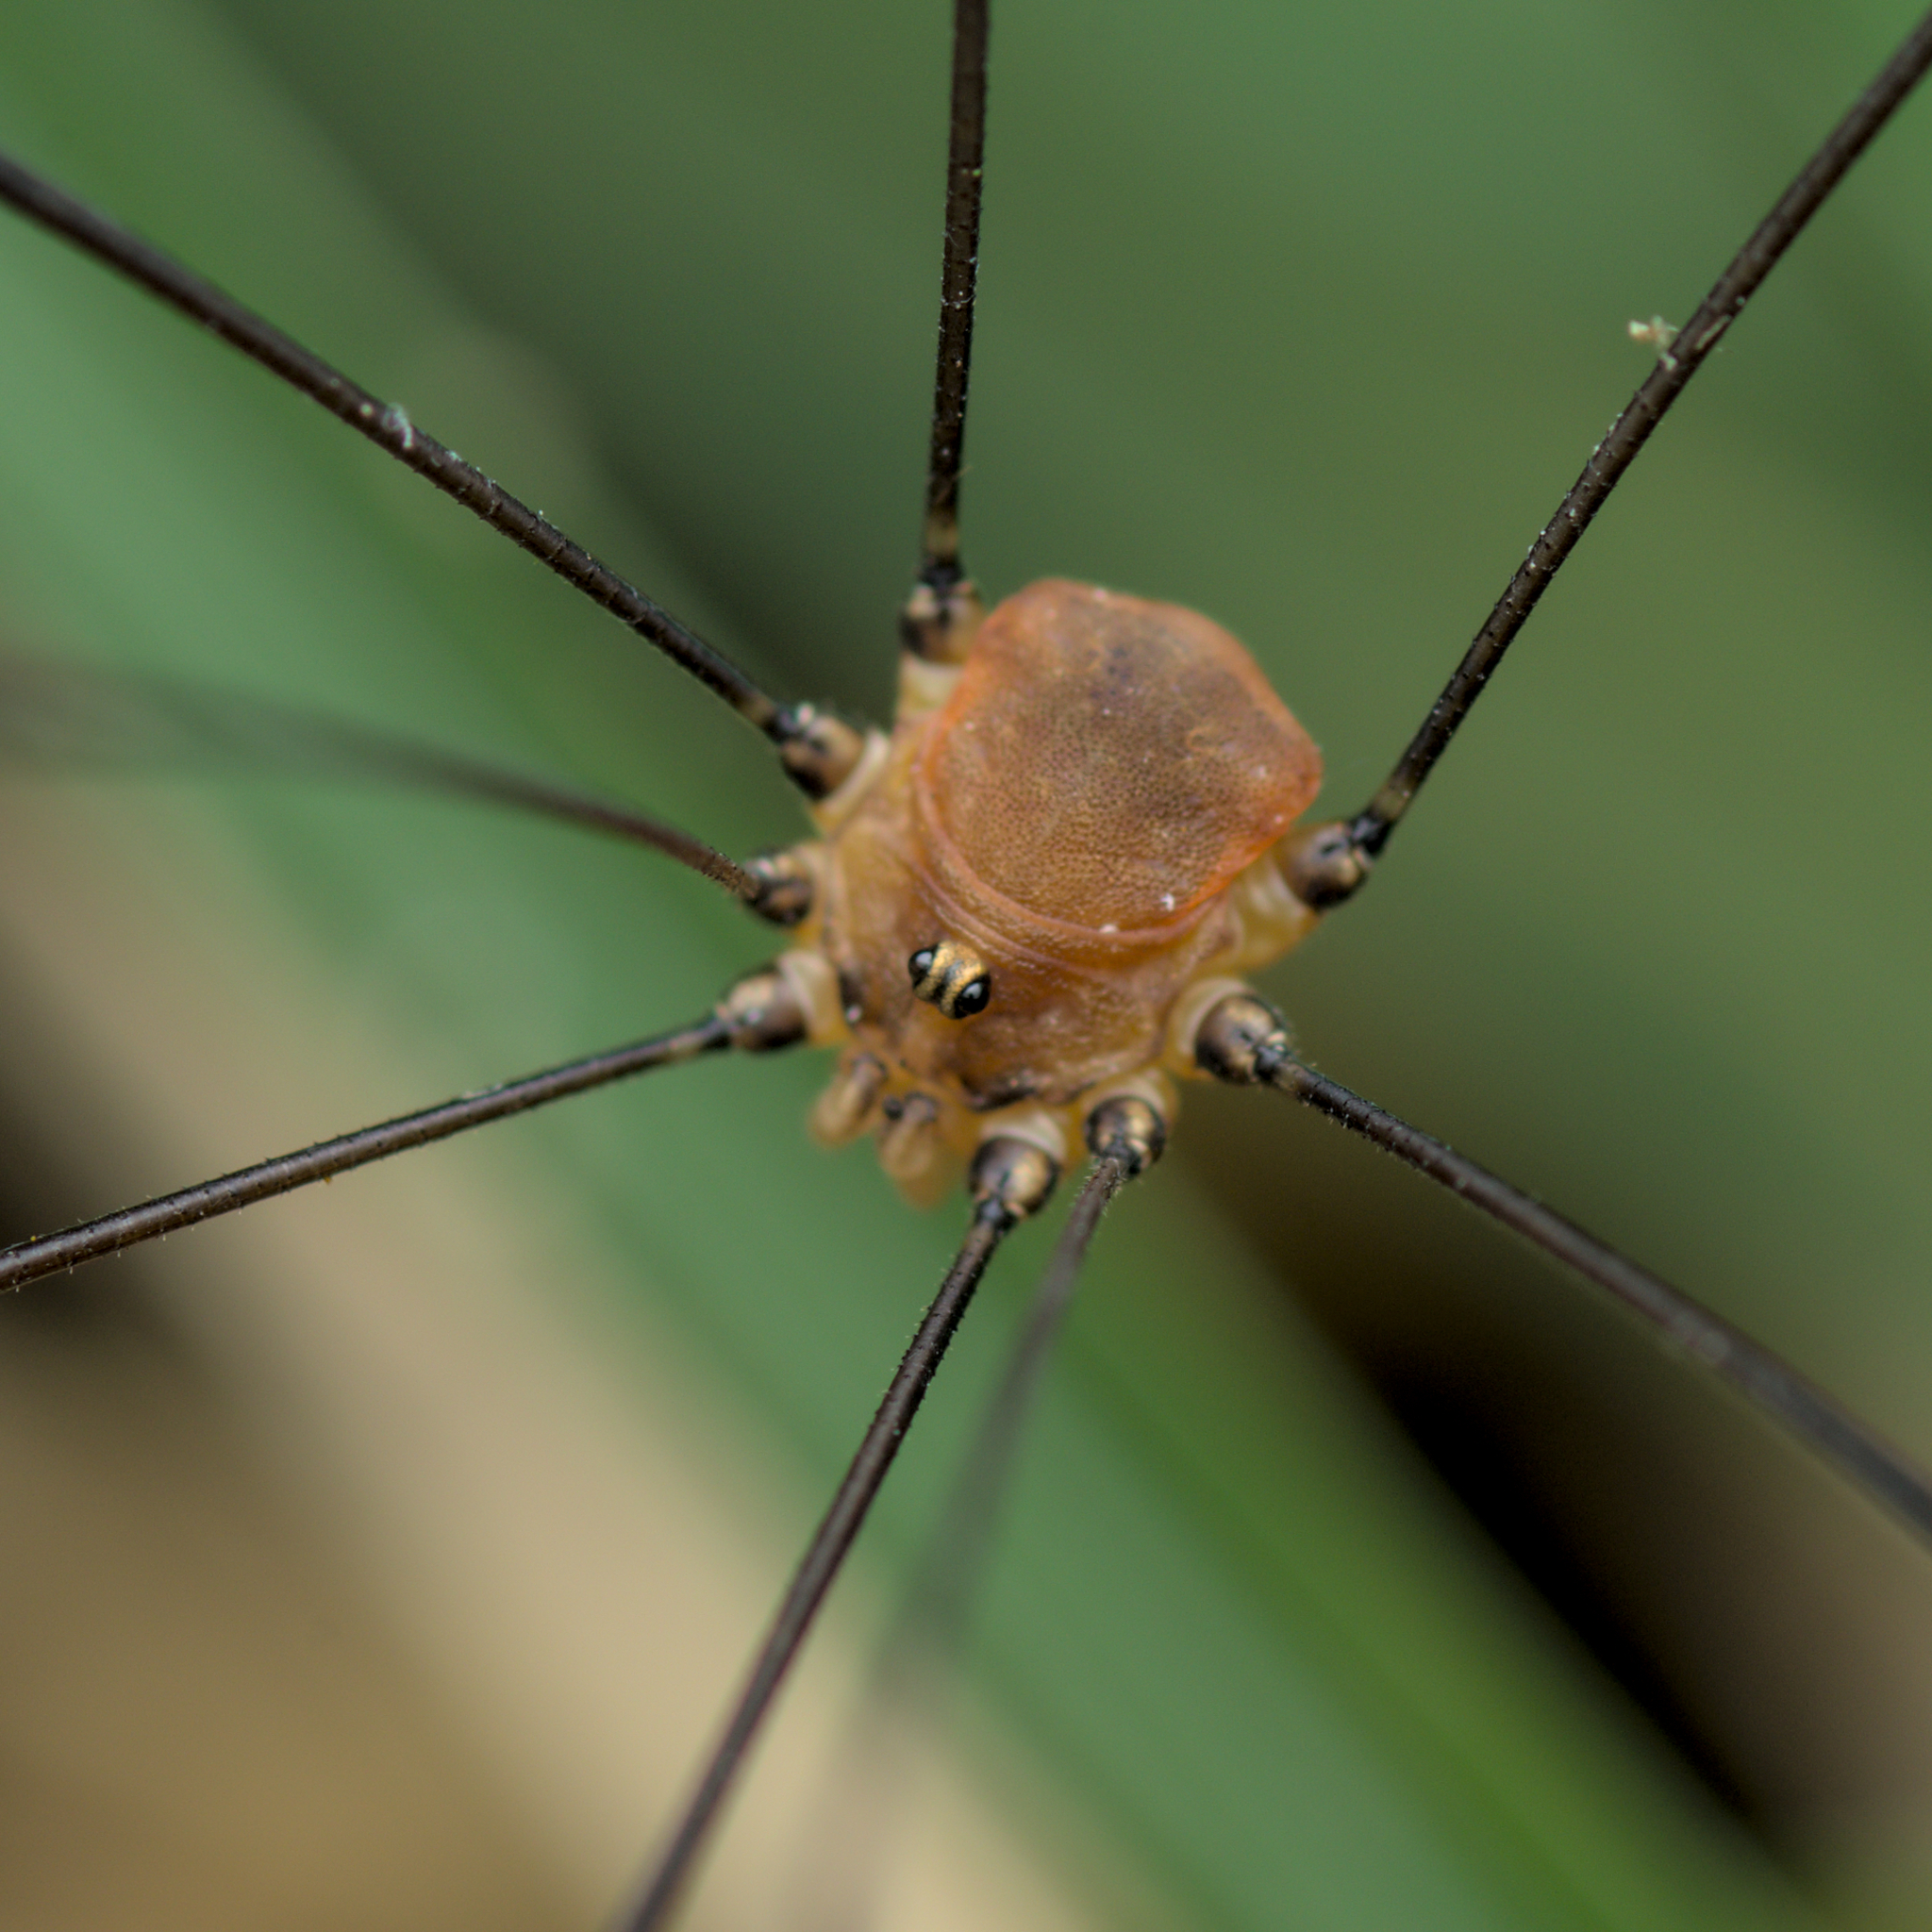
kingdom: Animalia
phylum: Arthropoda
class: Arachnida
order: Opiliones
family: Sclerosomatidae
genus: Leiobunum
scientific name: Leiobunum blackwalli
